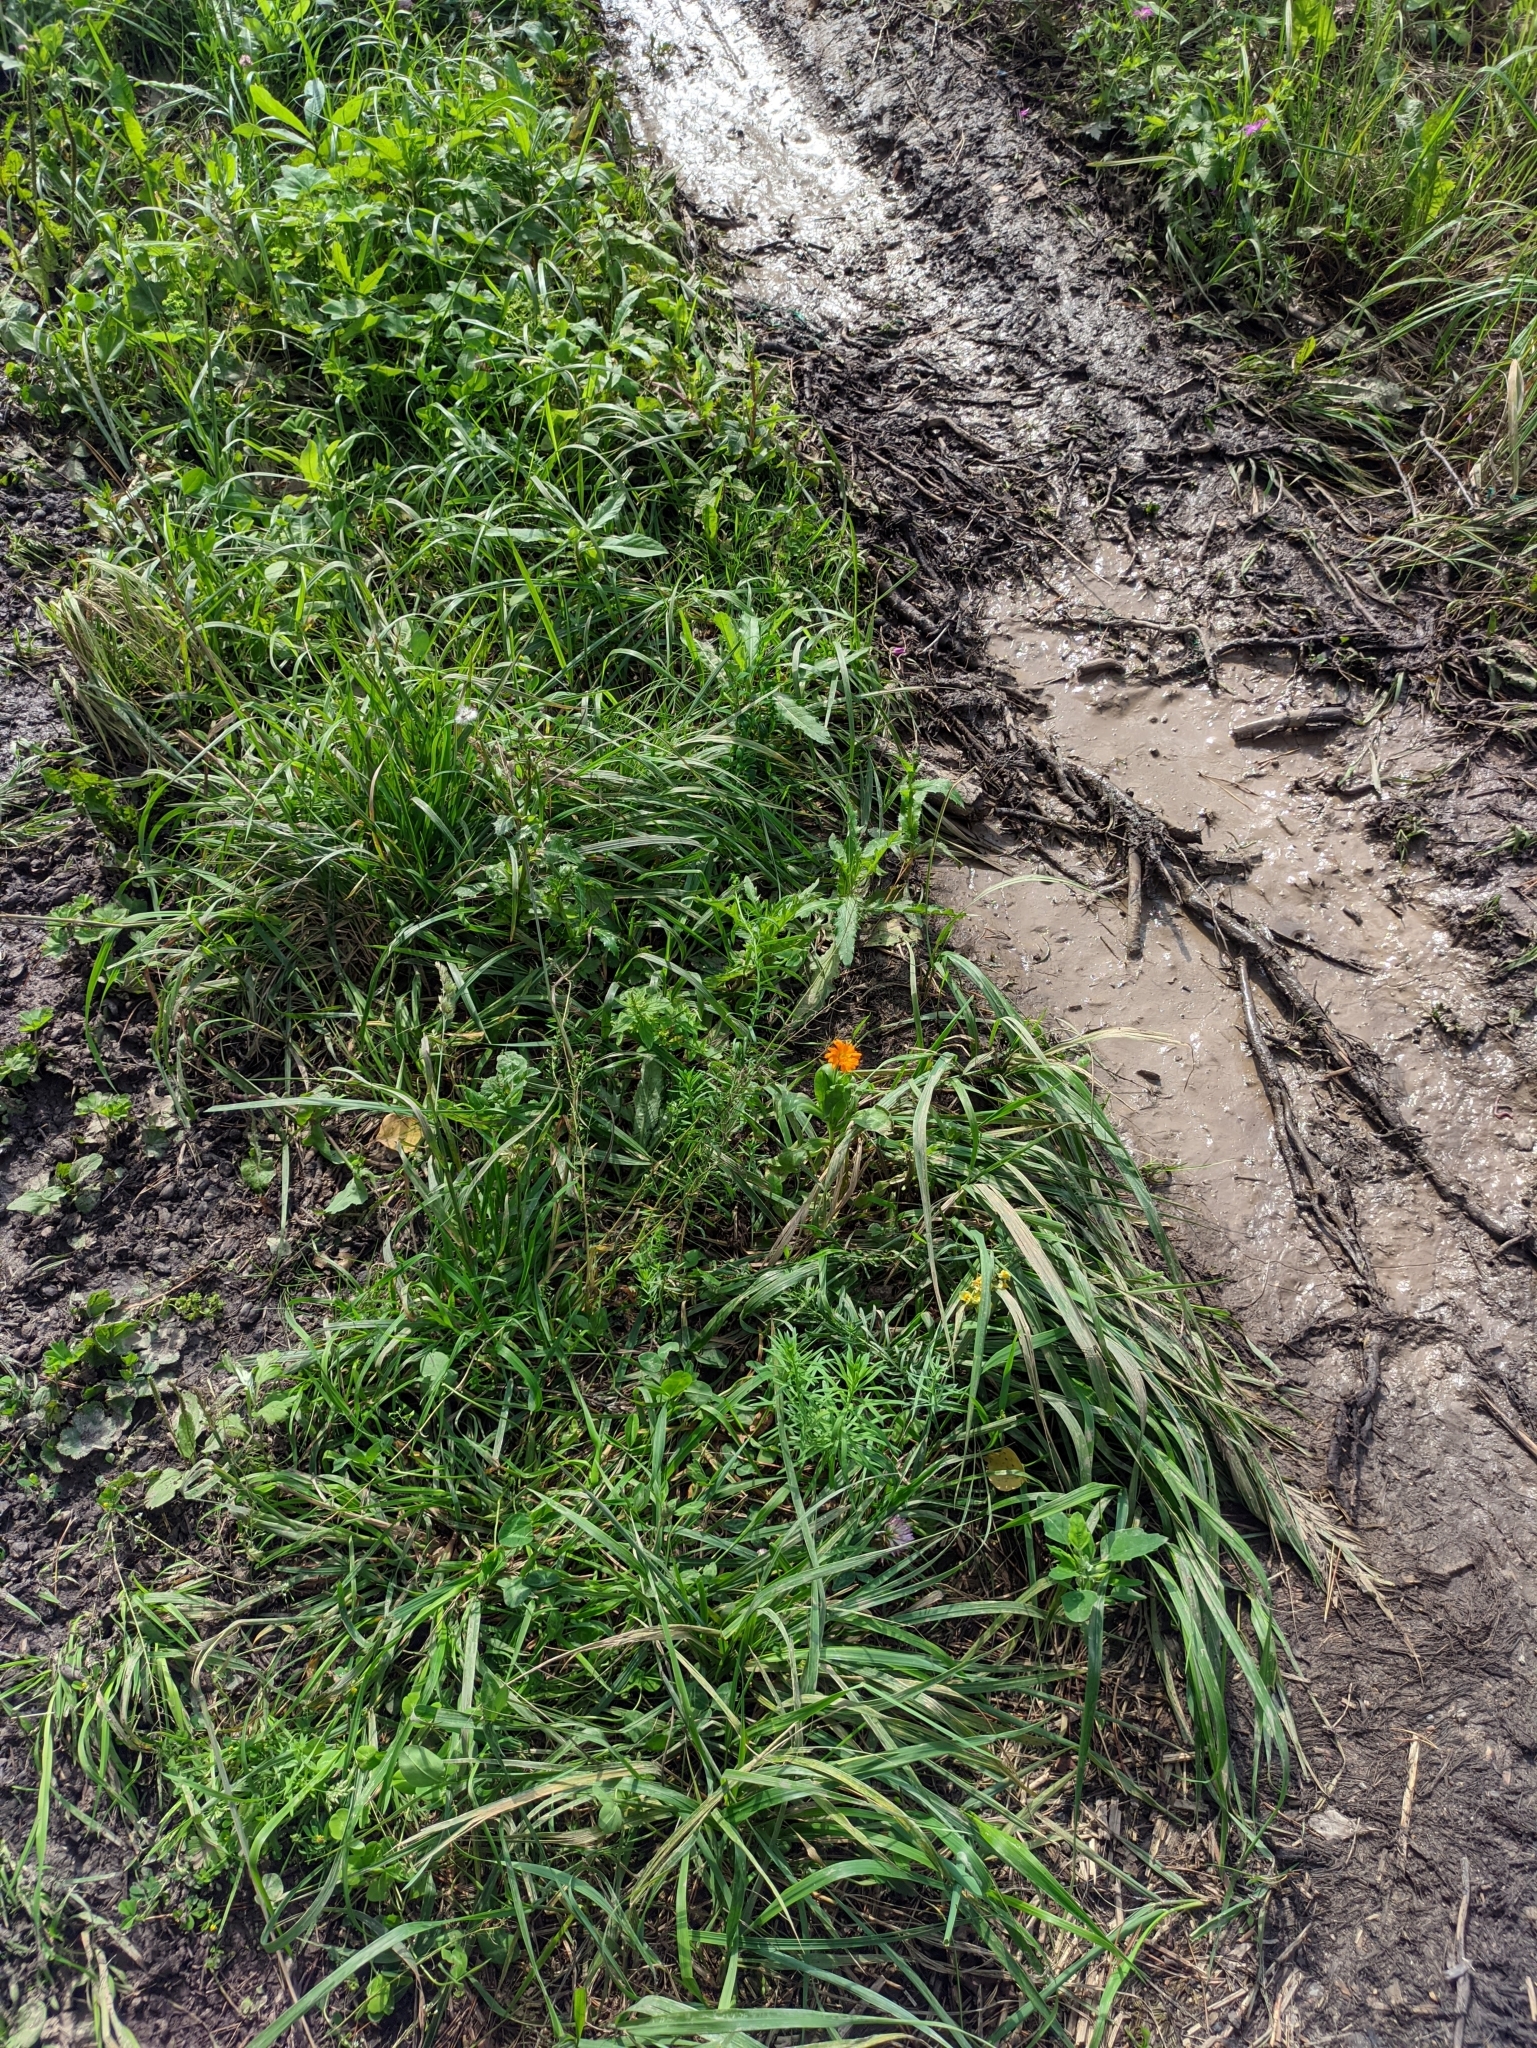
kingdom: Plantae
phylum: Tracheophyta
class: Magnoliopsida
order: Asterales
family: Asteraceae
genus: Calendula
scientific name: Calendula officinalis
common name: Pot marigold
